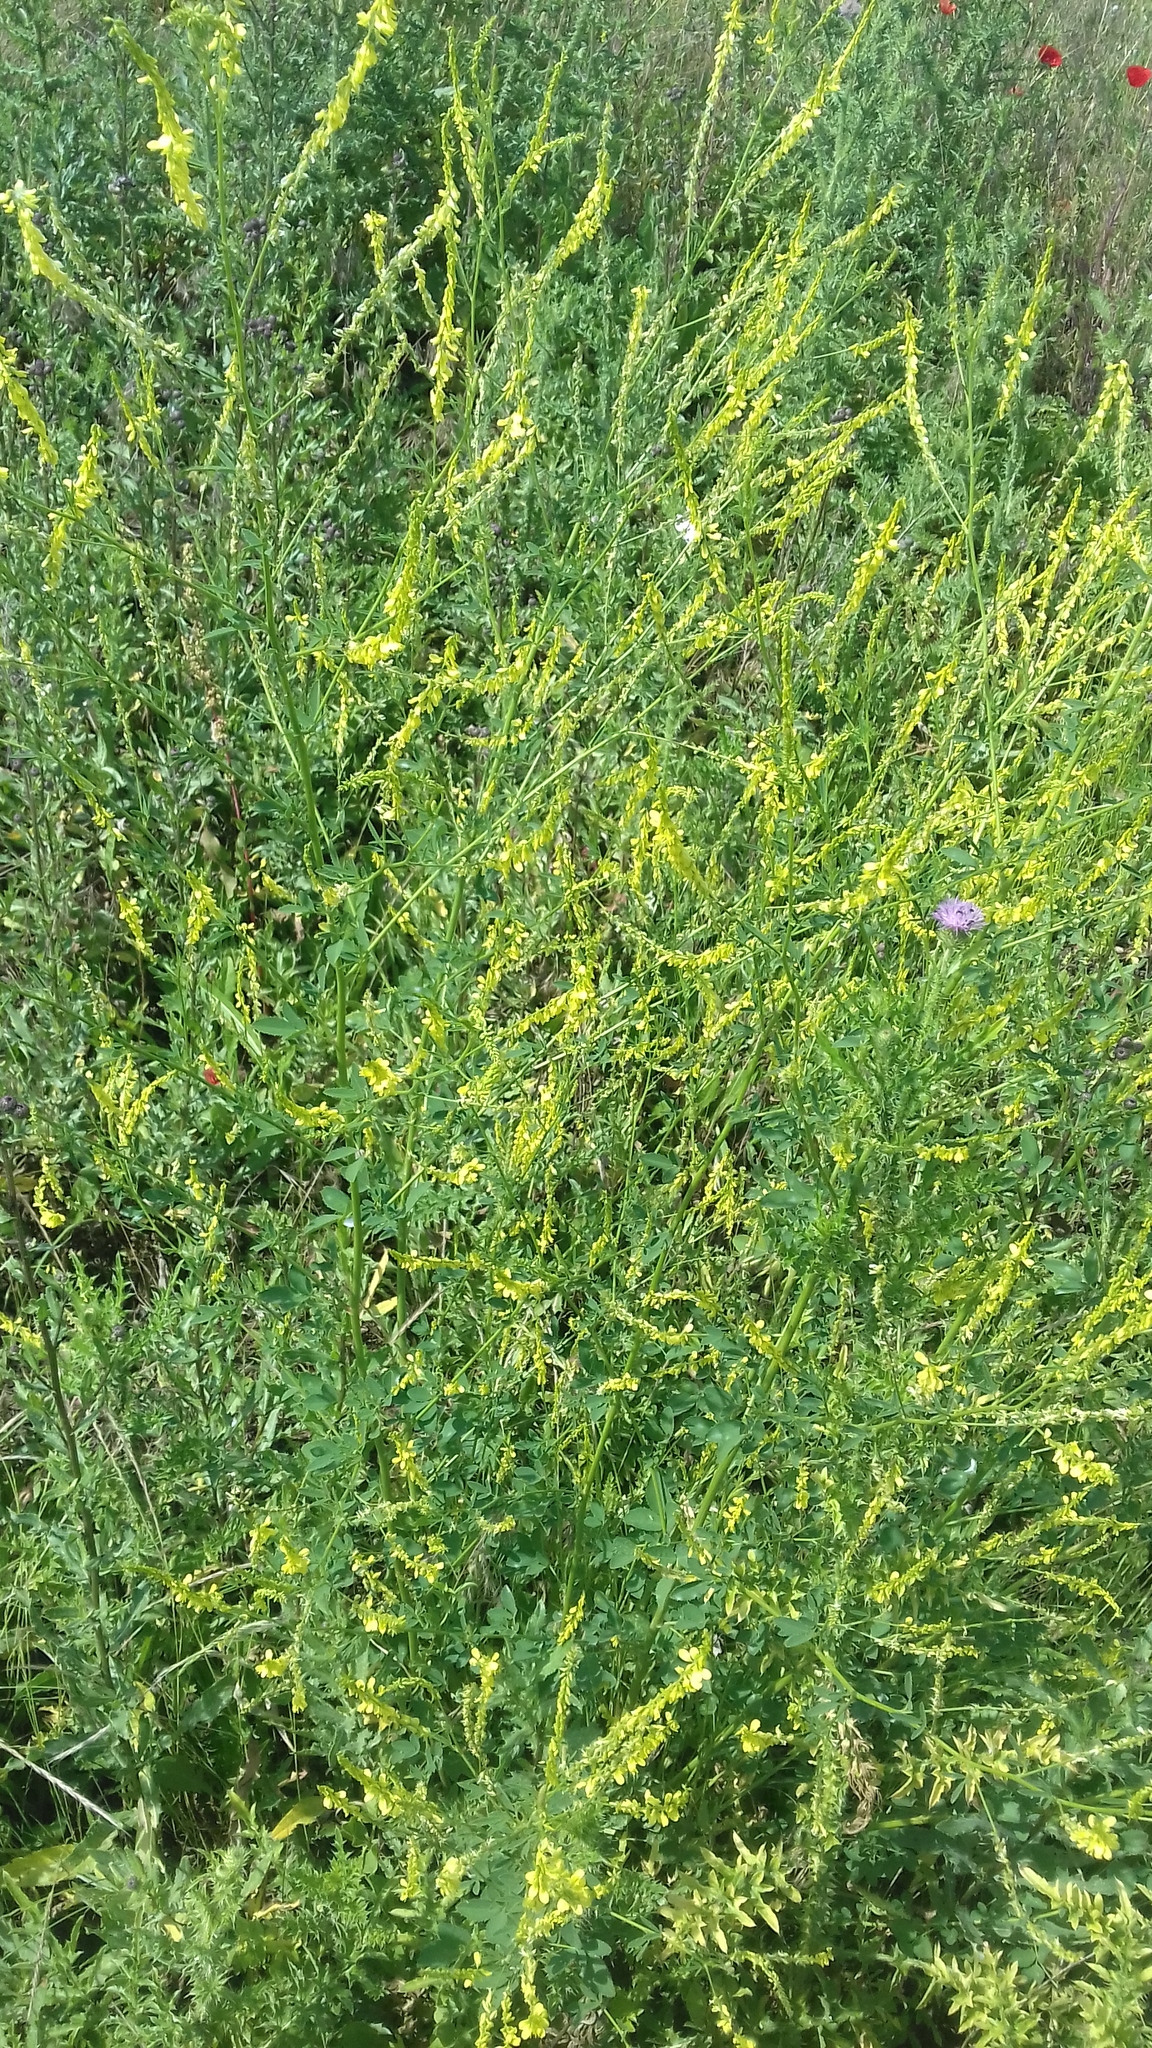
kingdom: Plantae
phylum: Tracheophyta
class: Magnoliopsida
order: Fabales
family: Fabaceae
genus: Melilotus
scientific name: Melilotus officinalis
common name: Sweetclover
